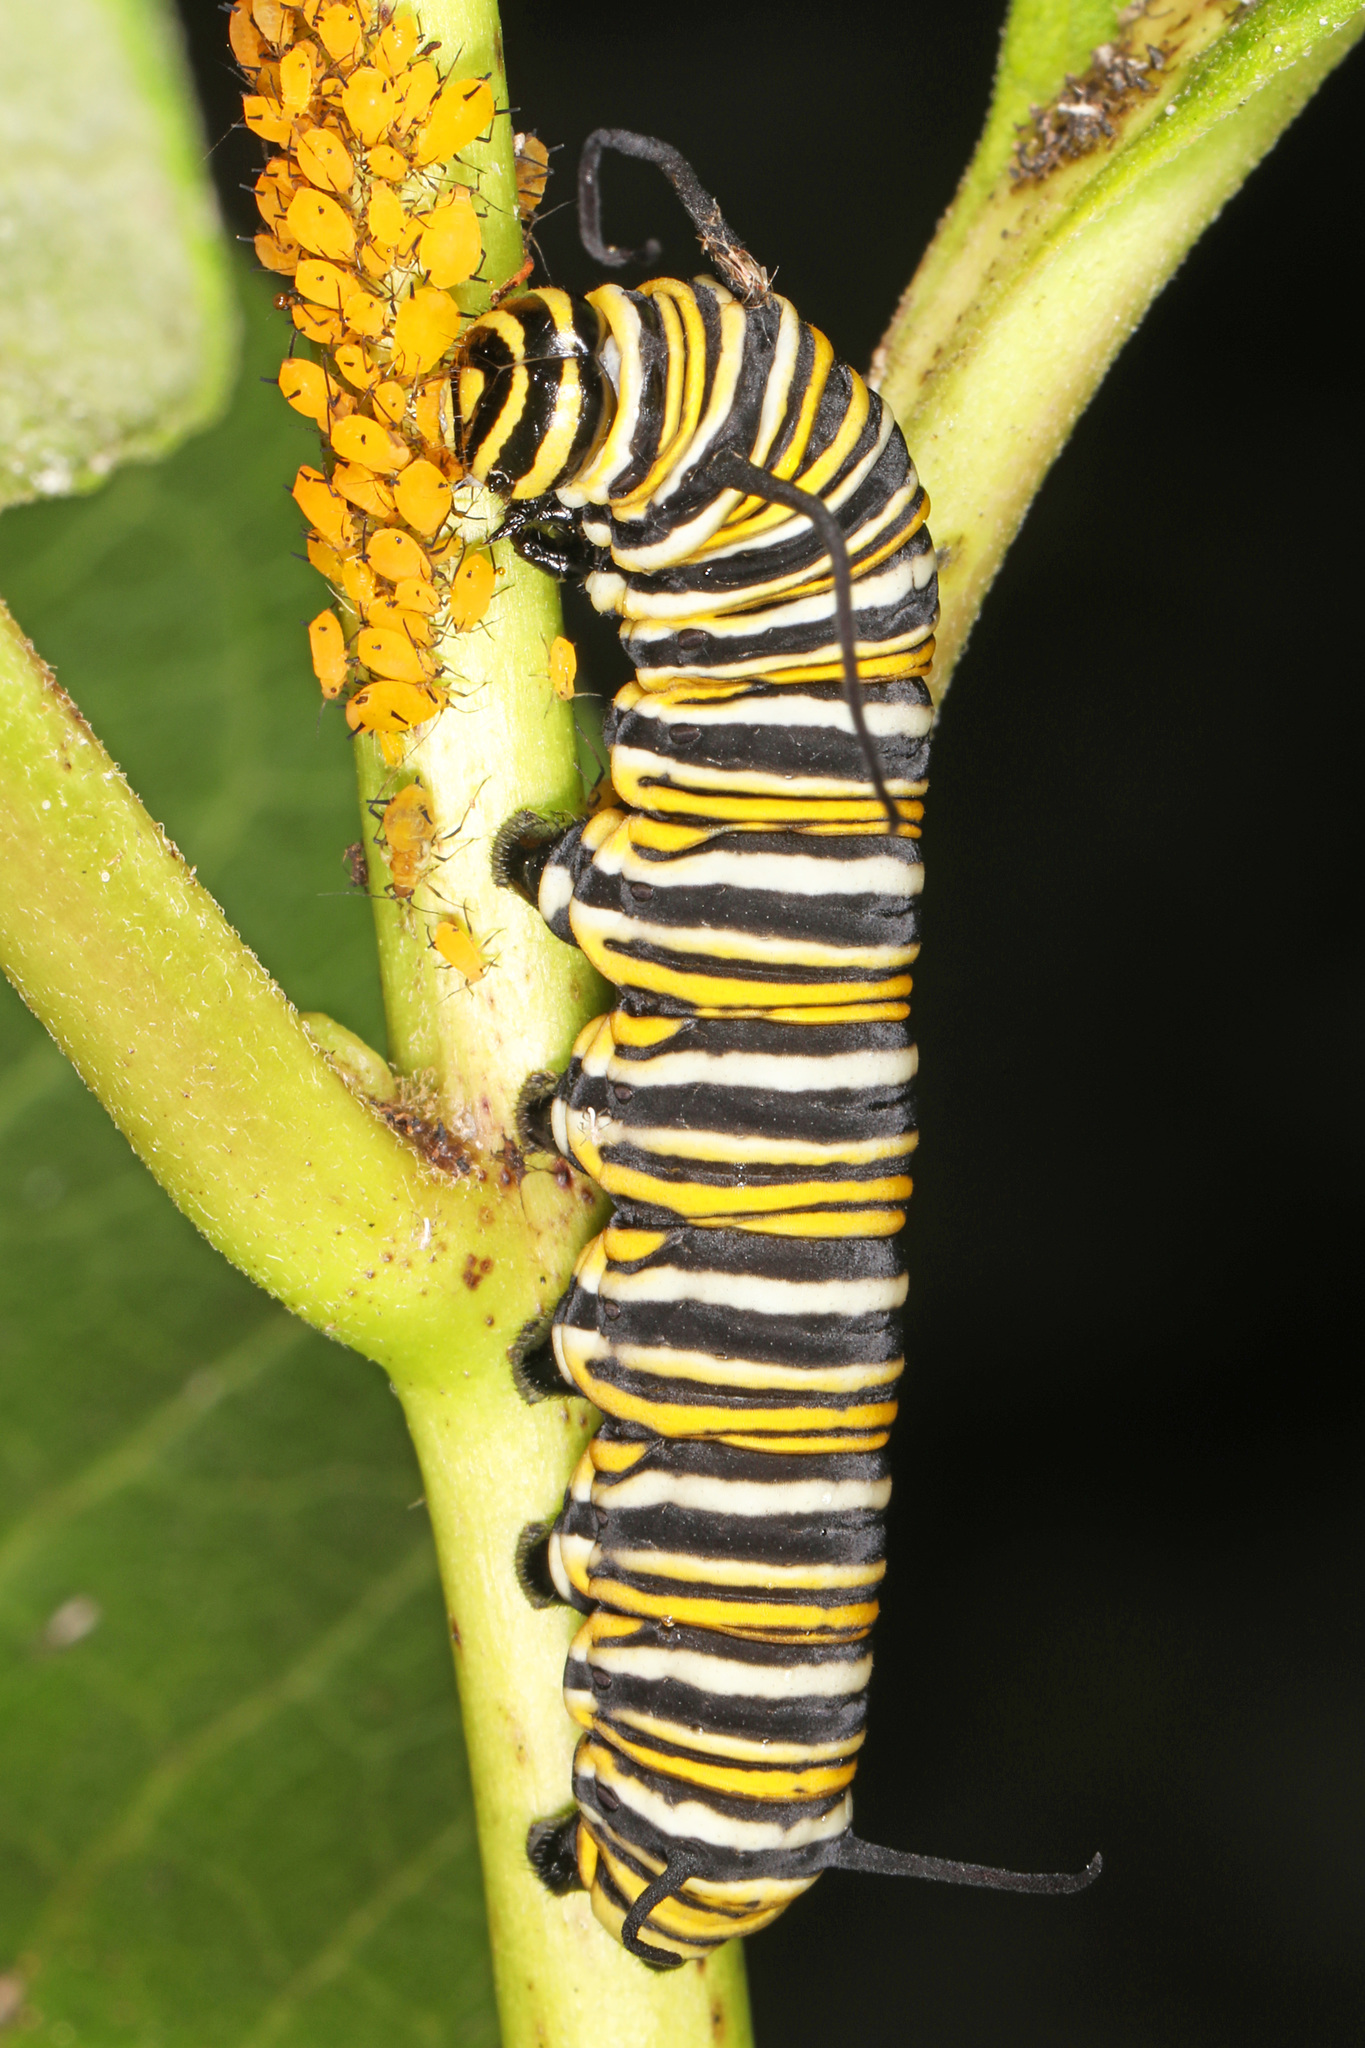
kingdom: Animalia
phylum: Arthropoda
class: Insecta
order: Lepidoptera
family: Nymphalidae
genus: Danaus
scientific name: Danaus plexippus
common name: Monarch
